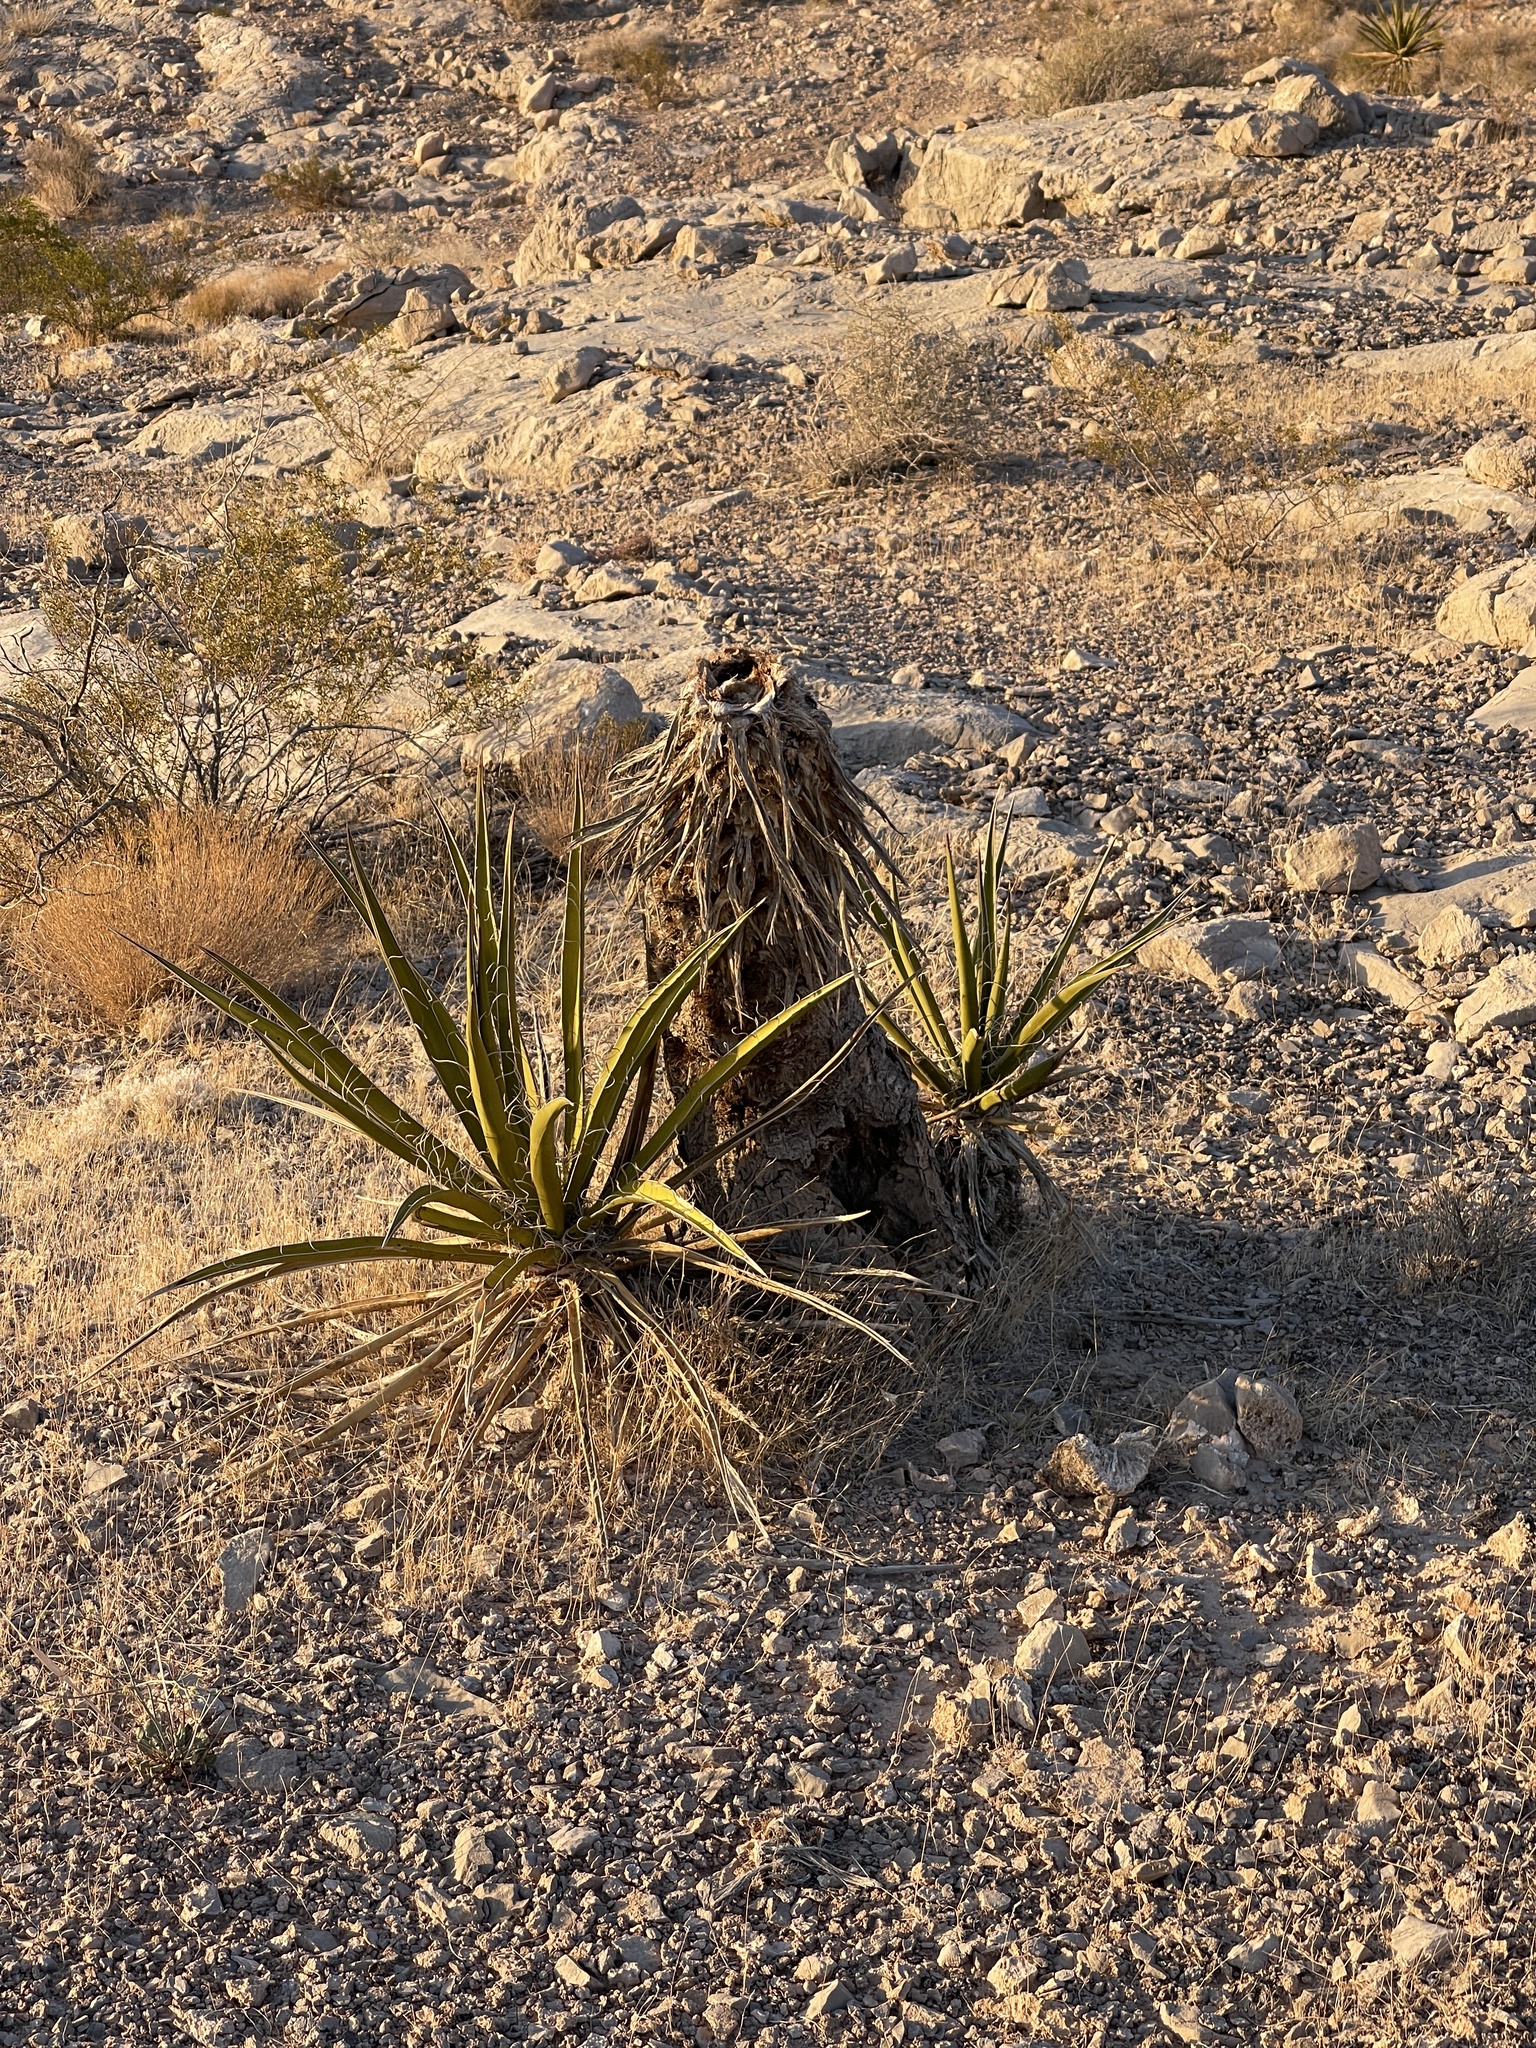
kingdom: Plantae
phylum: Tracheophyta
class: Liliopsida
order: Asparagales
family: Asparagaceae
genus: Yucca
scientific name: Yucca schidigera
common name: Mojave yucca
